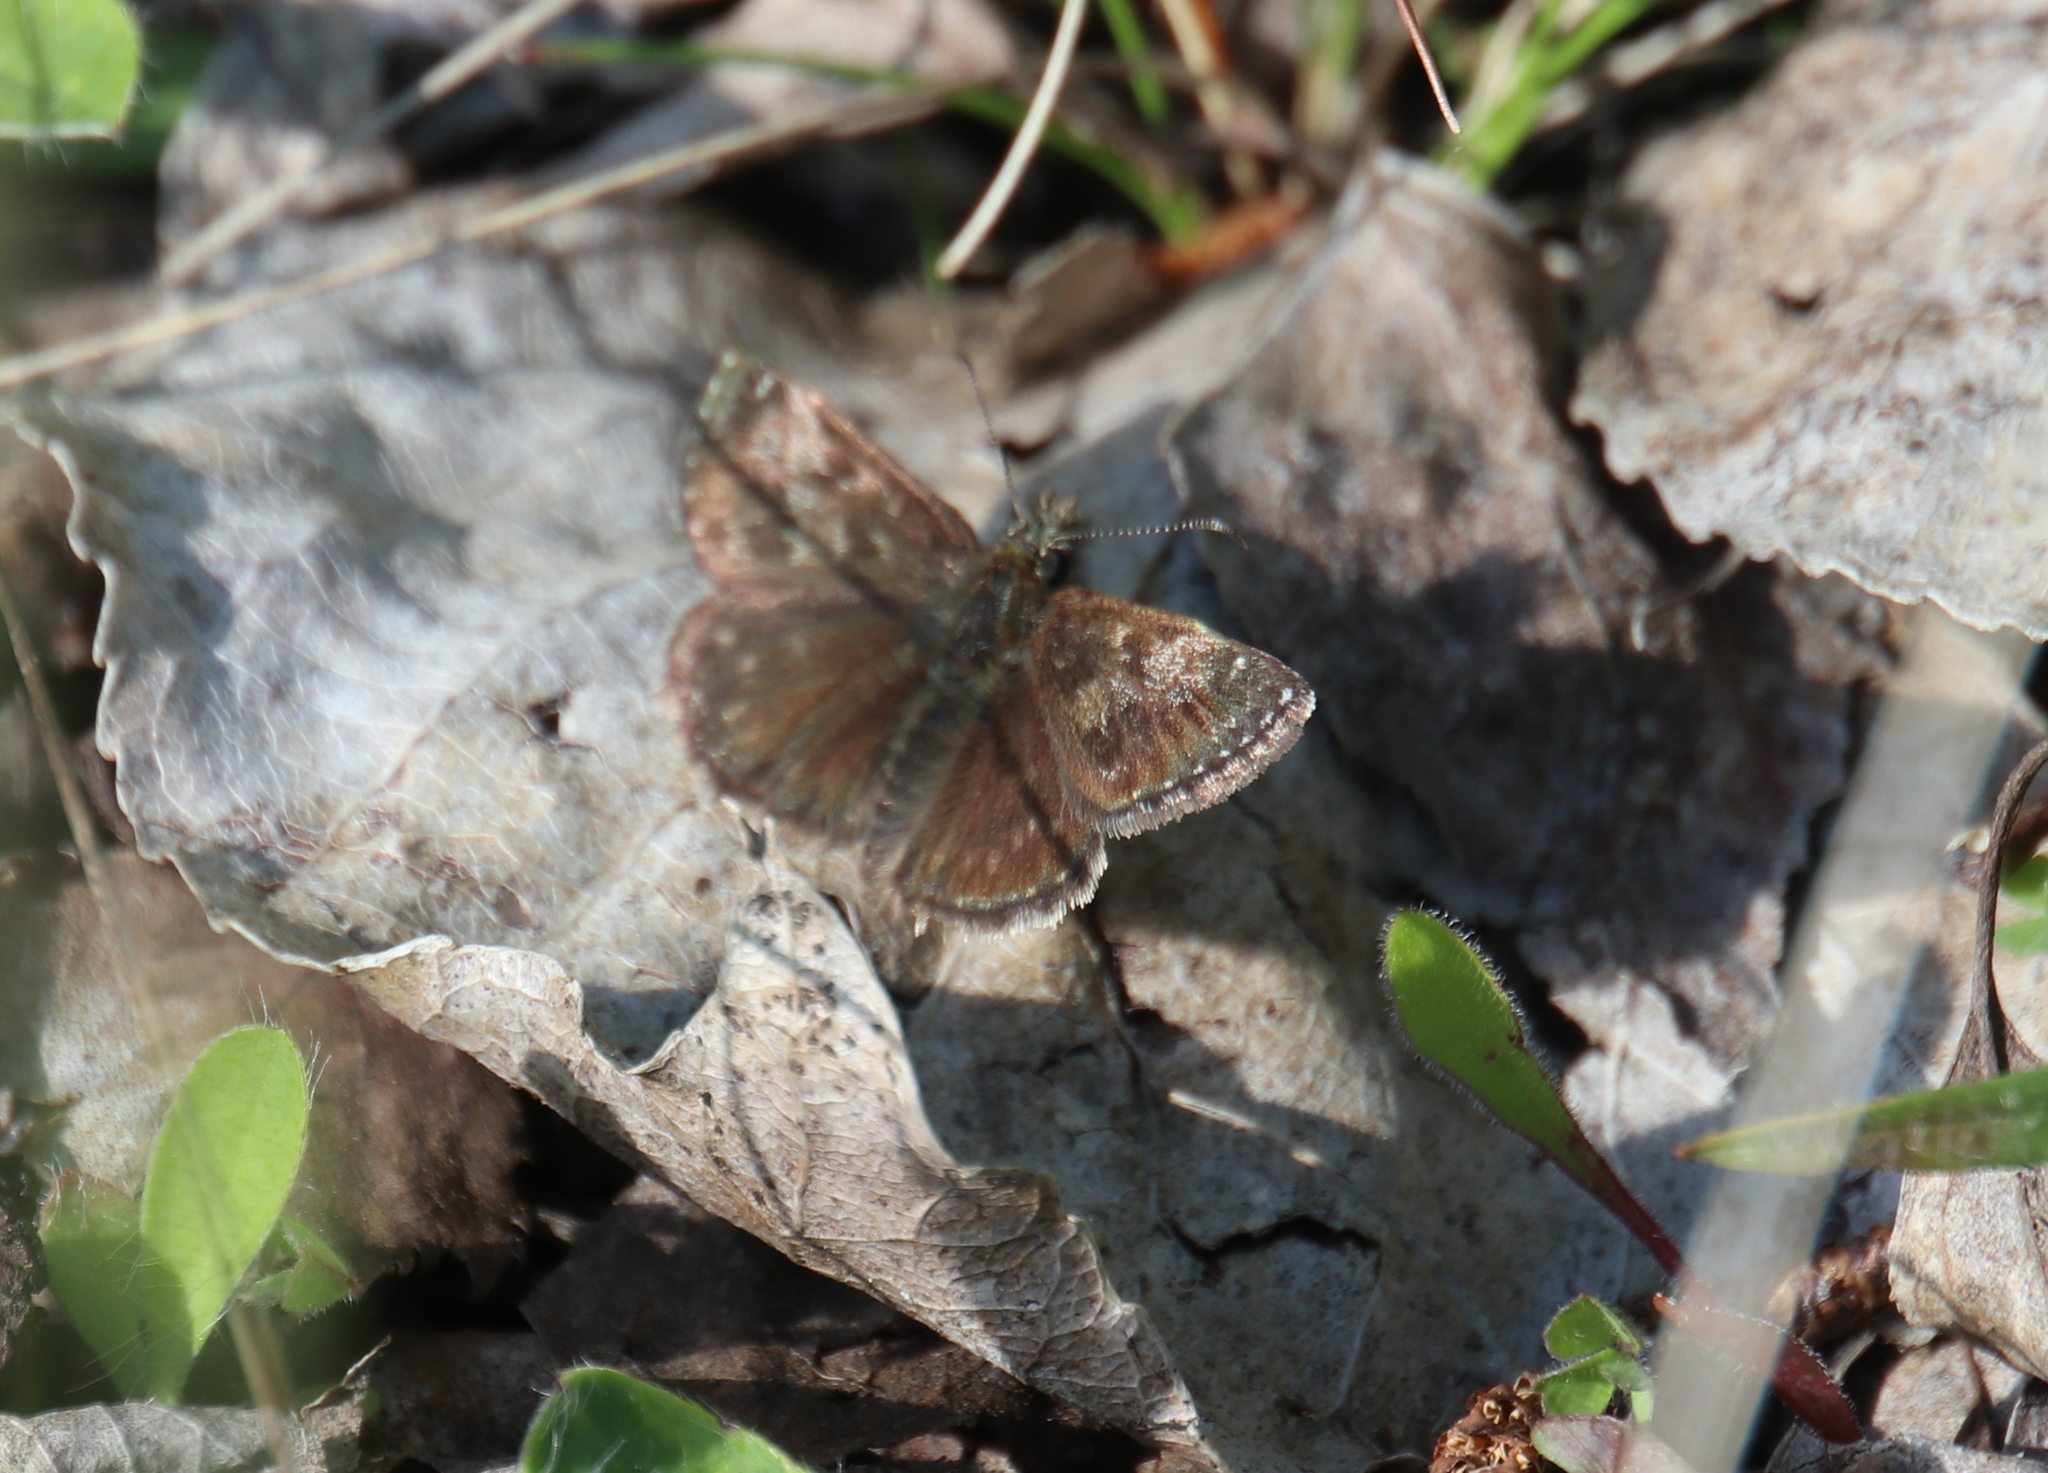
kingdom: Animalia
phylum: Arthropoda
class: Insecta
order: Lepidoptera
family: Hesperiidae
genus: Erynnis
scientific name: Erynnis tages
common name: Dingy skipper
